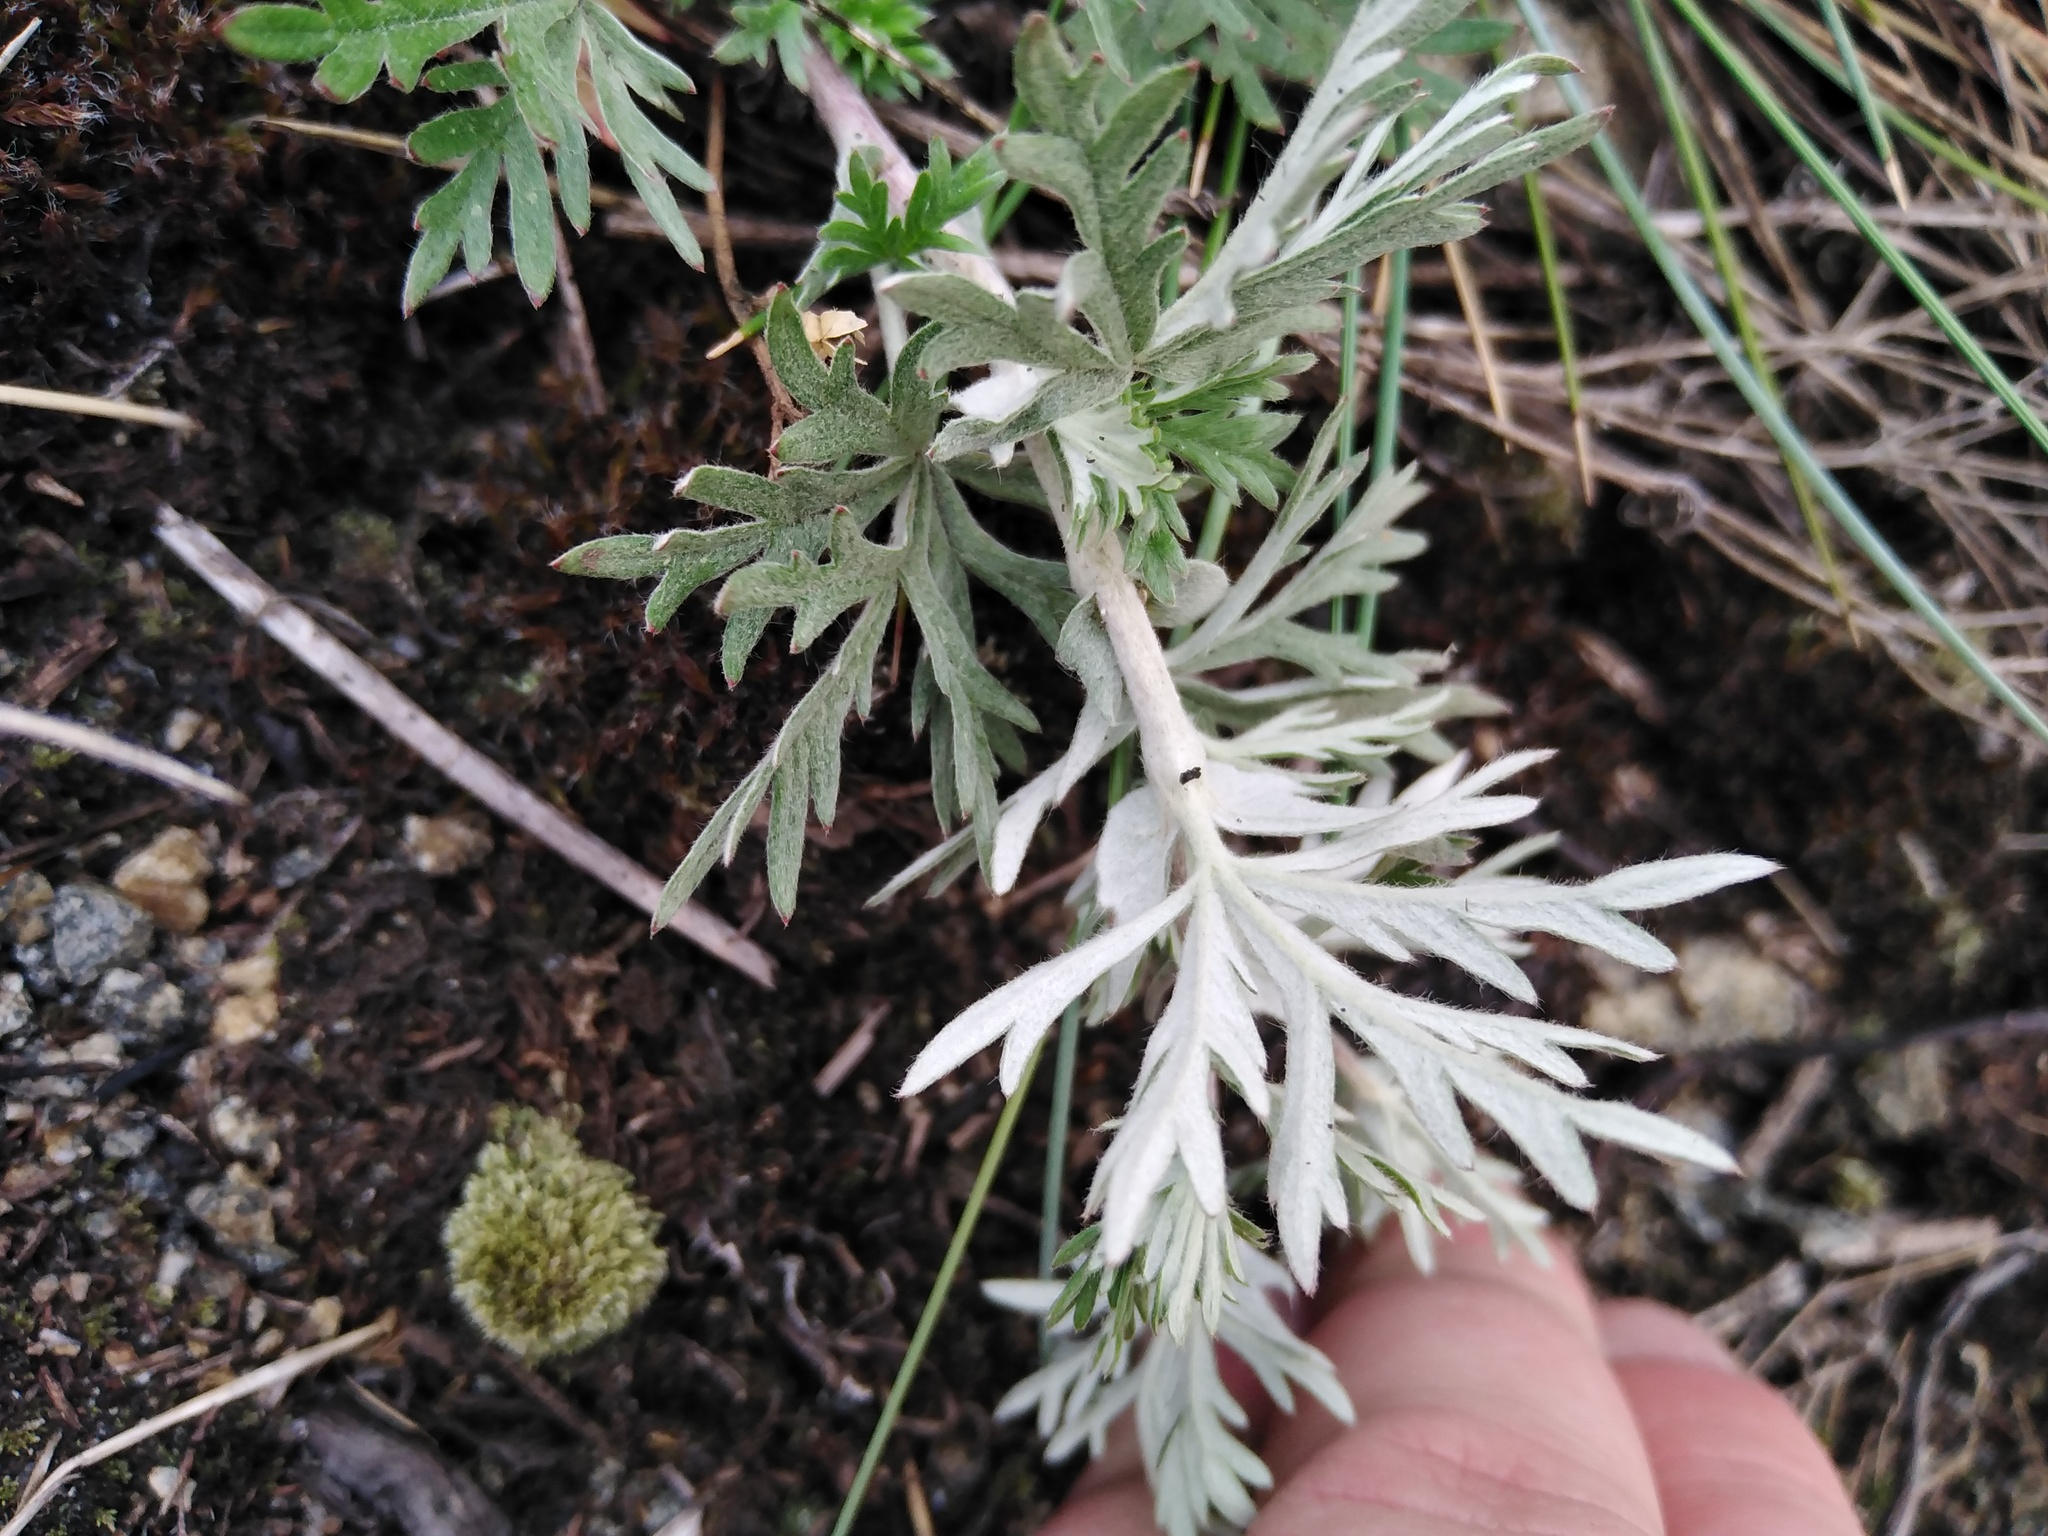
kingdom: Plantae
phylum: Tracheophyta
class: Magnoliopsida
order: Rosales
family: Rosaceae
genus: Potentilla
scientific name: Potentilla argentea
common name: Hoary cinquefoil
